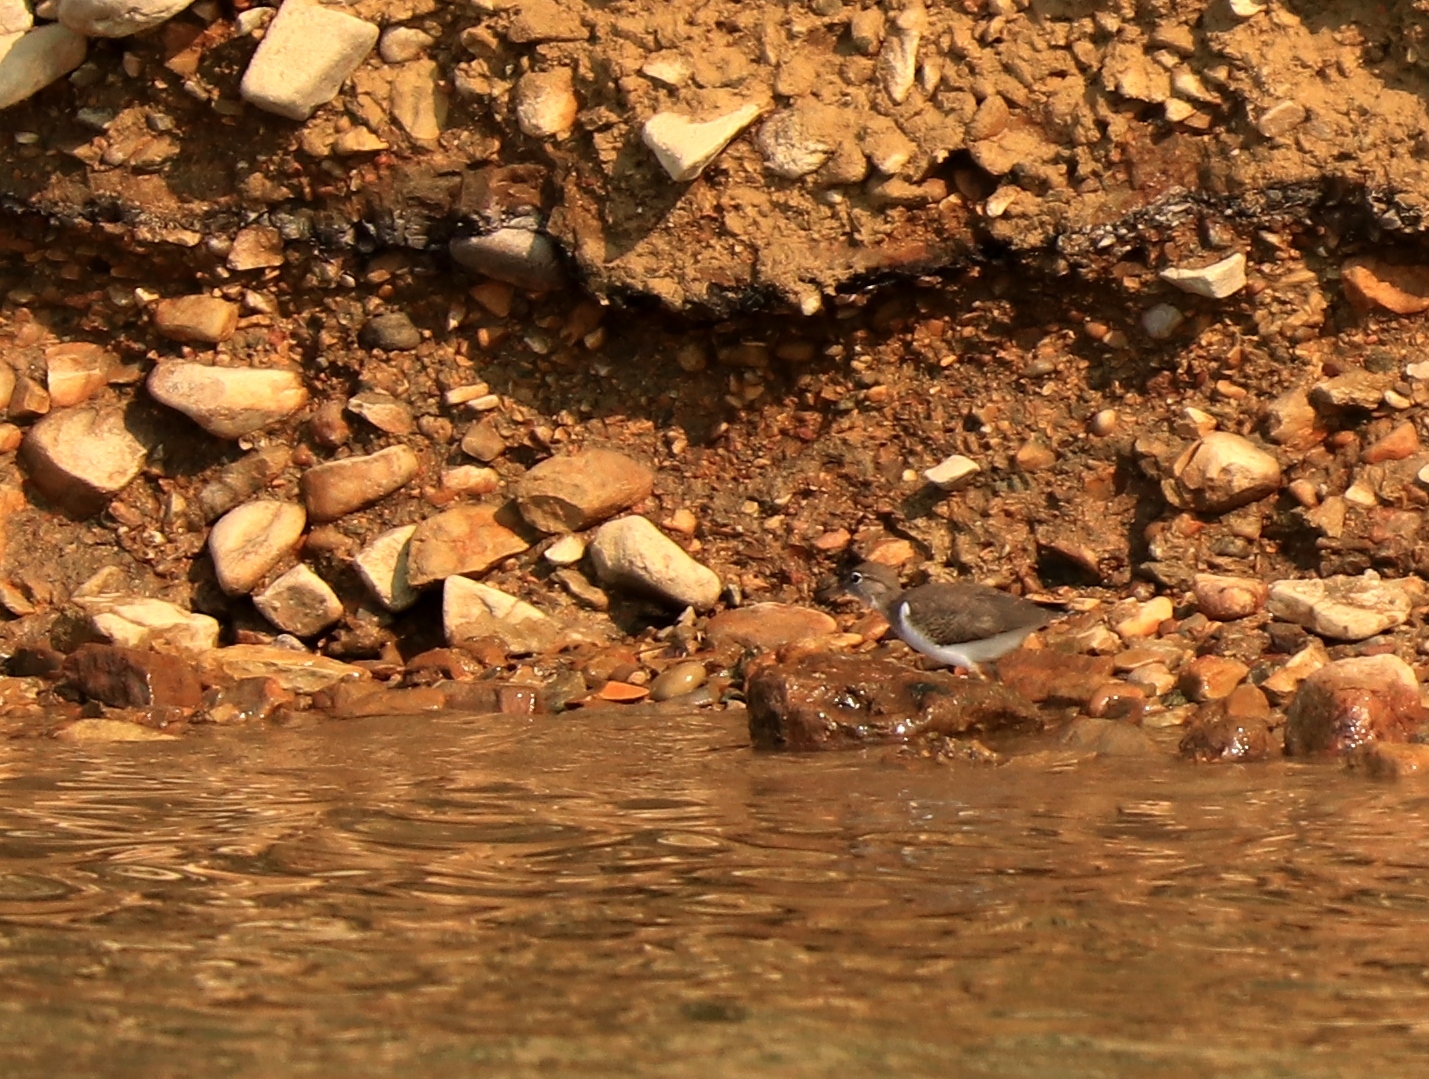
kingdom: Animalia
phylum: Chordata
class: Aves
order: Charadriiformes
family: Scolopacidae
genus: Actitis
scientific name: Actitis macularius
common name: Spotted sandpiper
